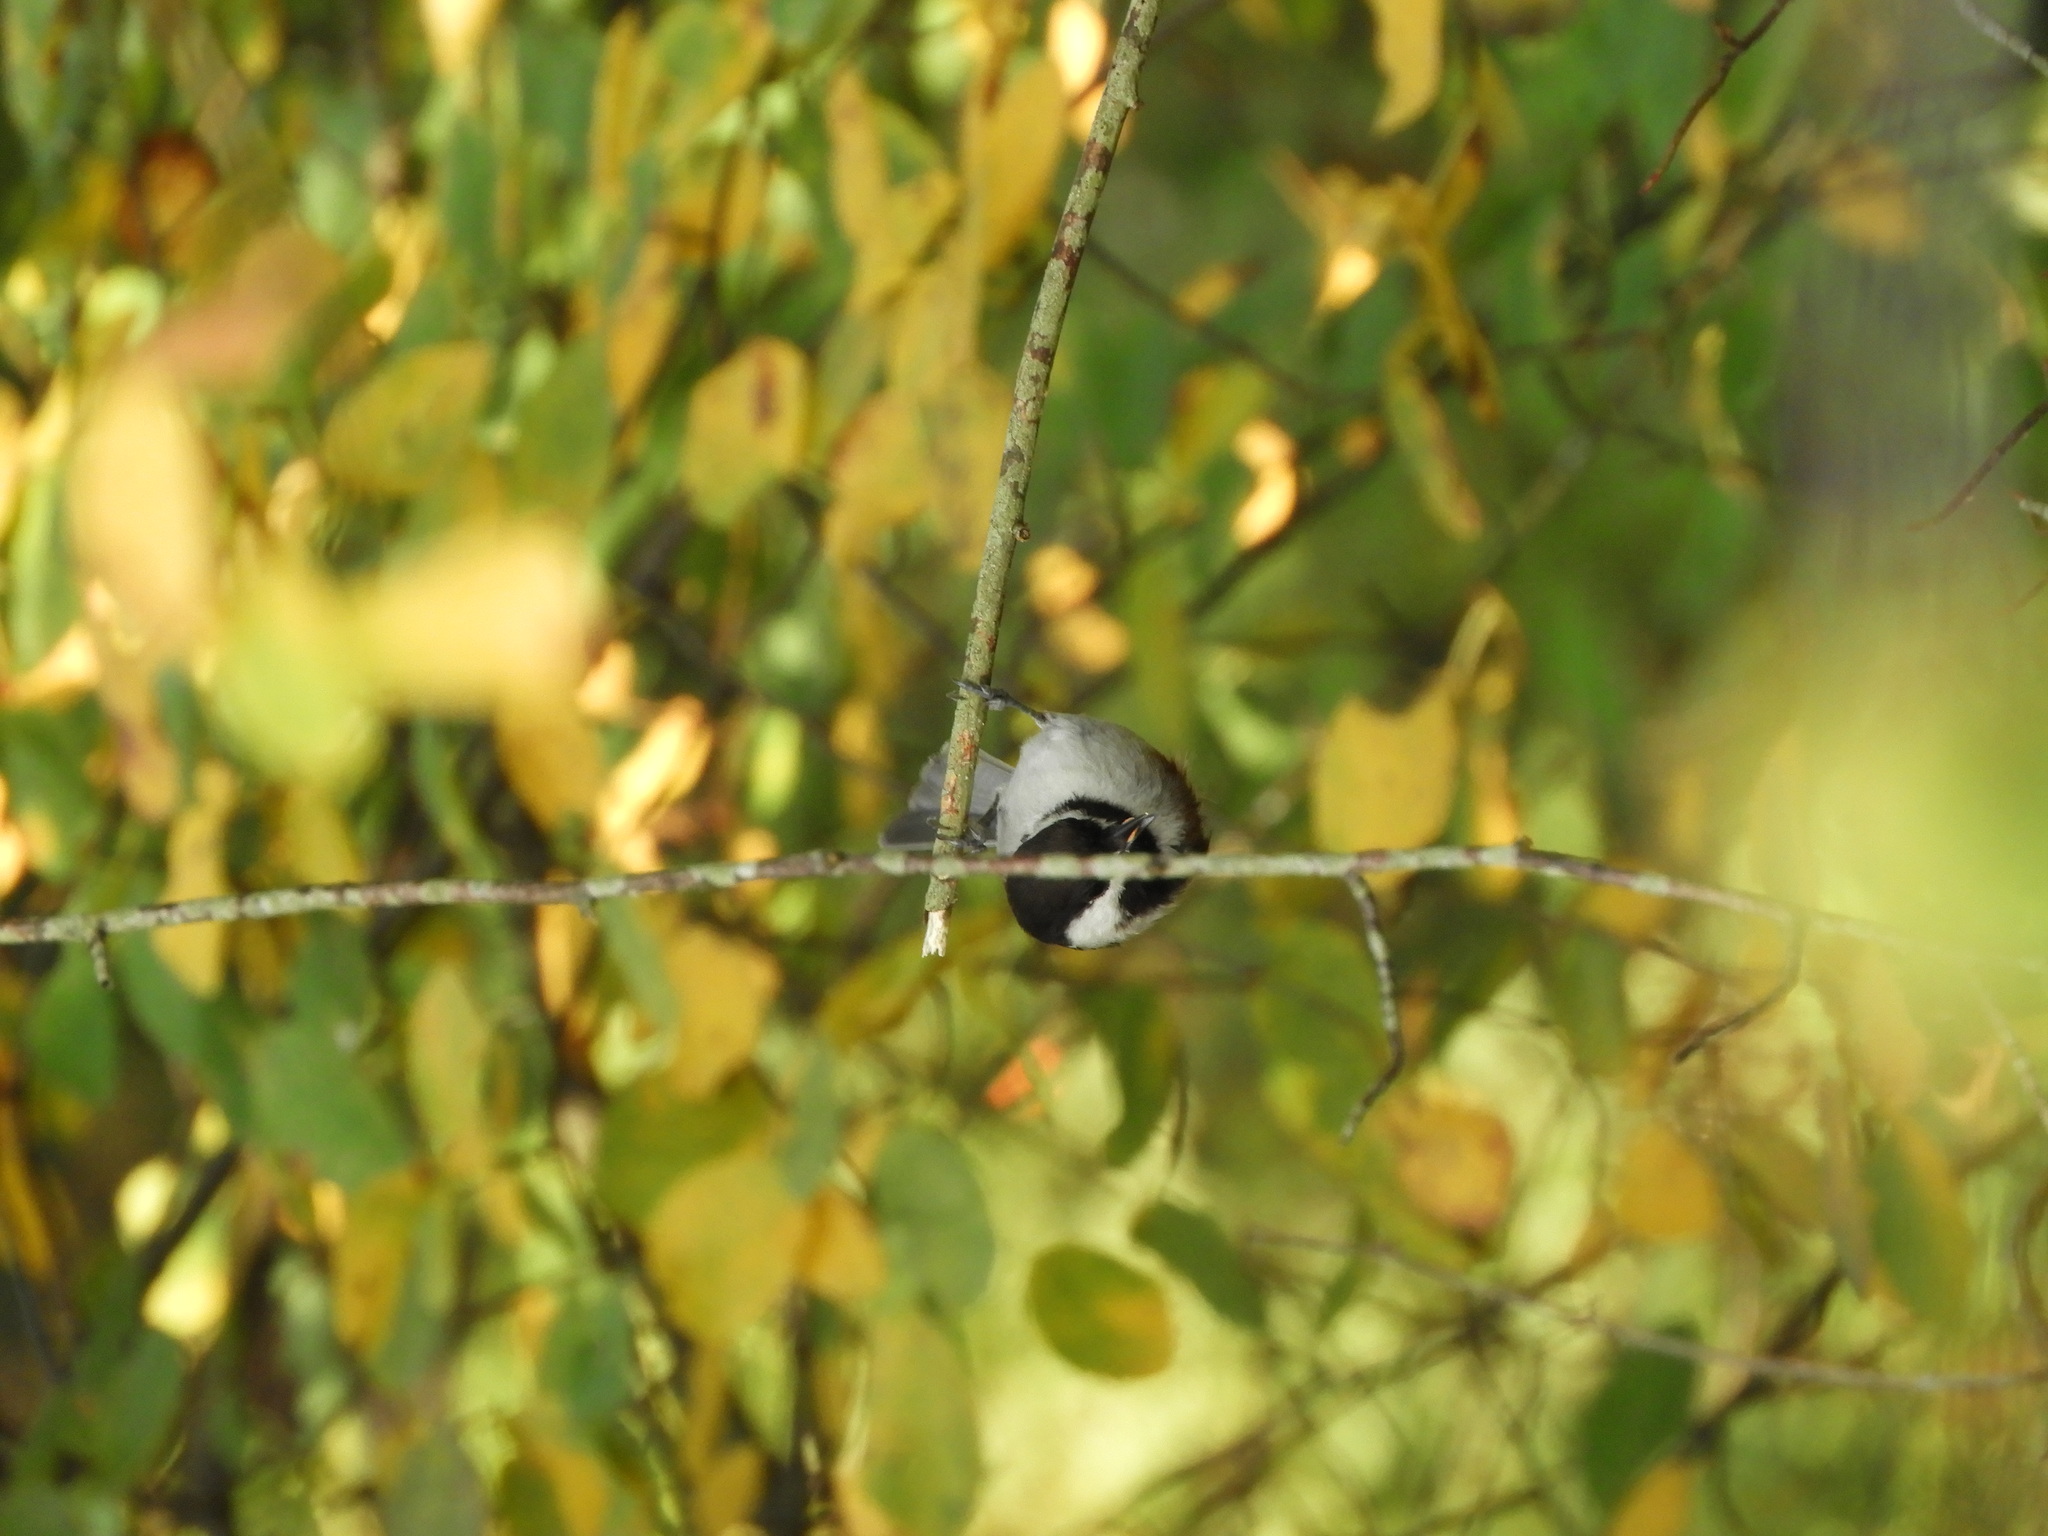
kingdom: Animalia
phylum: Chordata
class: Aves
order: Passeriformes
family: Paridae
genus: Poecile
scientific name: Poecile rufescens
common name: Chestnut-backed chickadee
